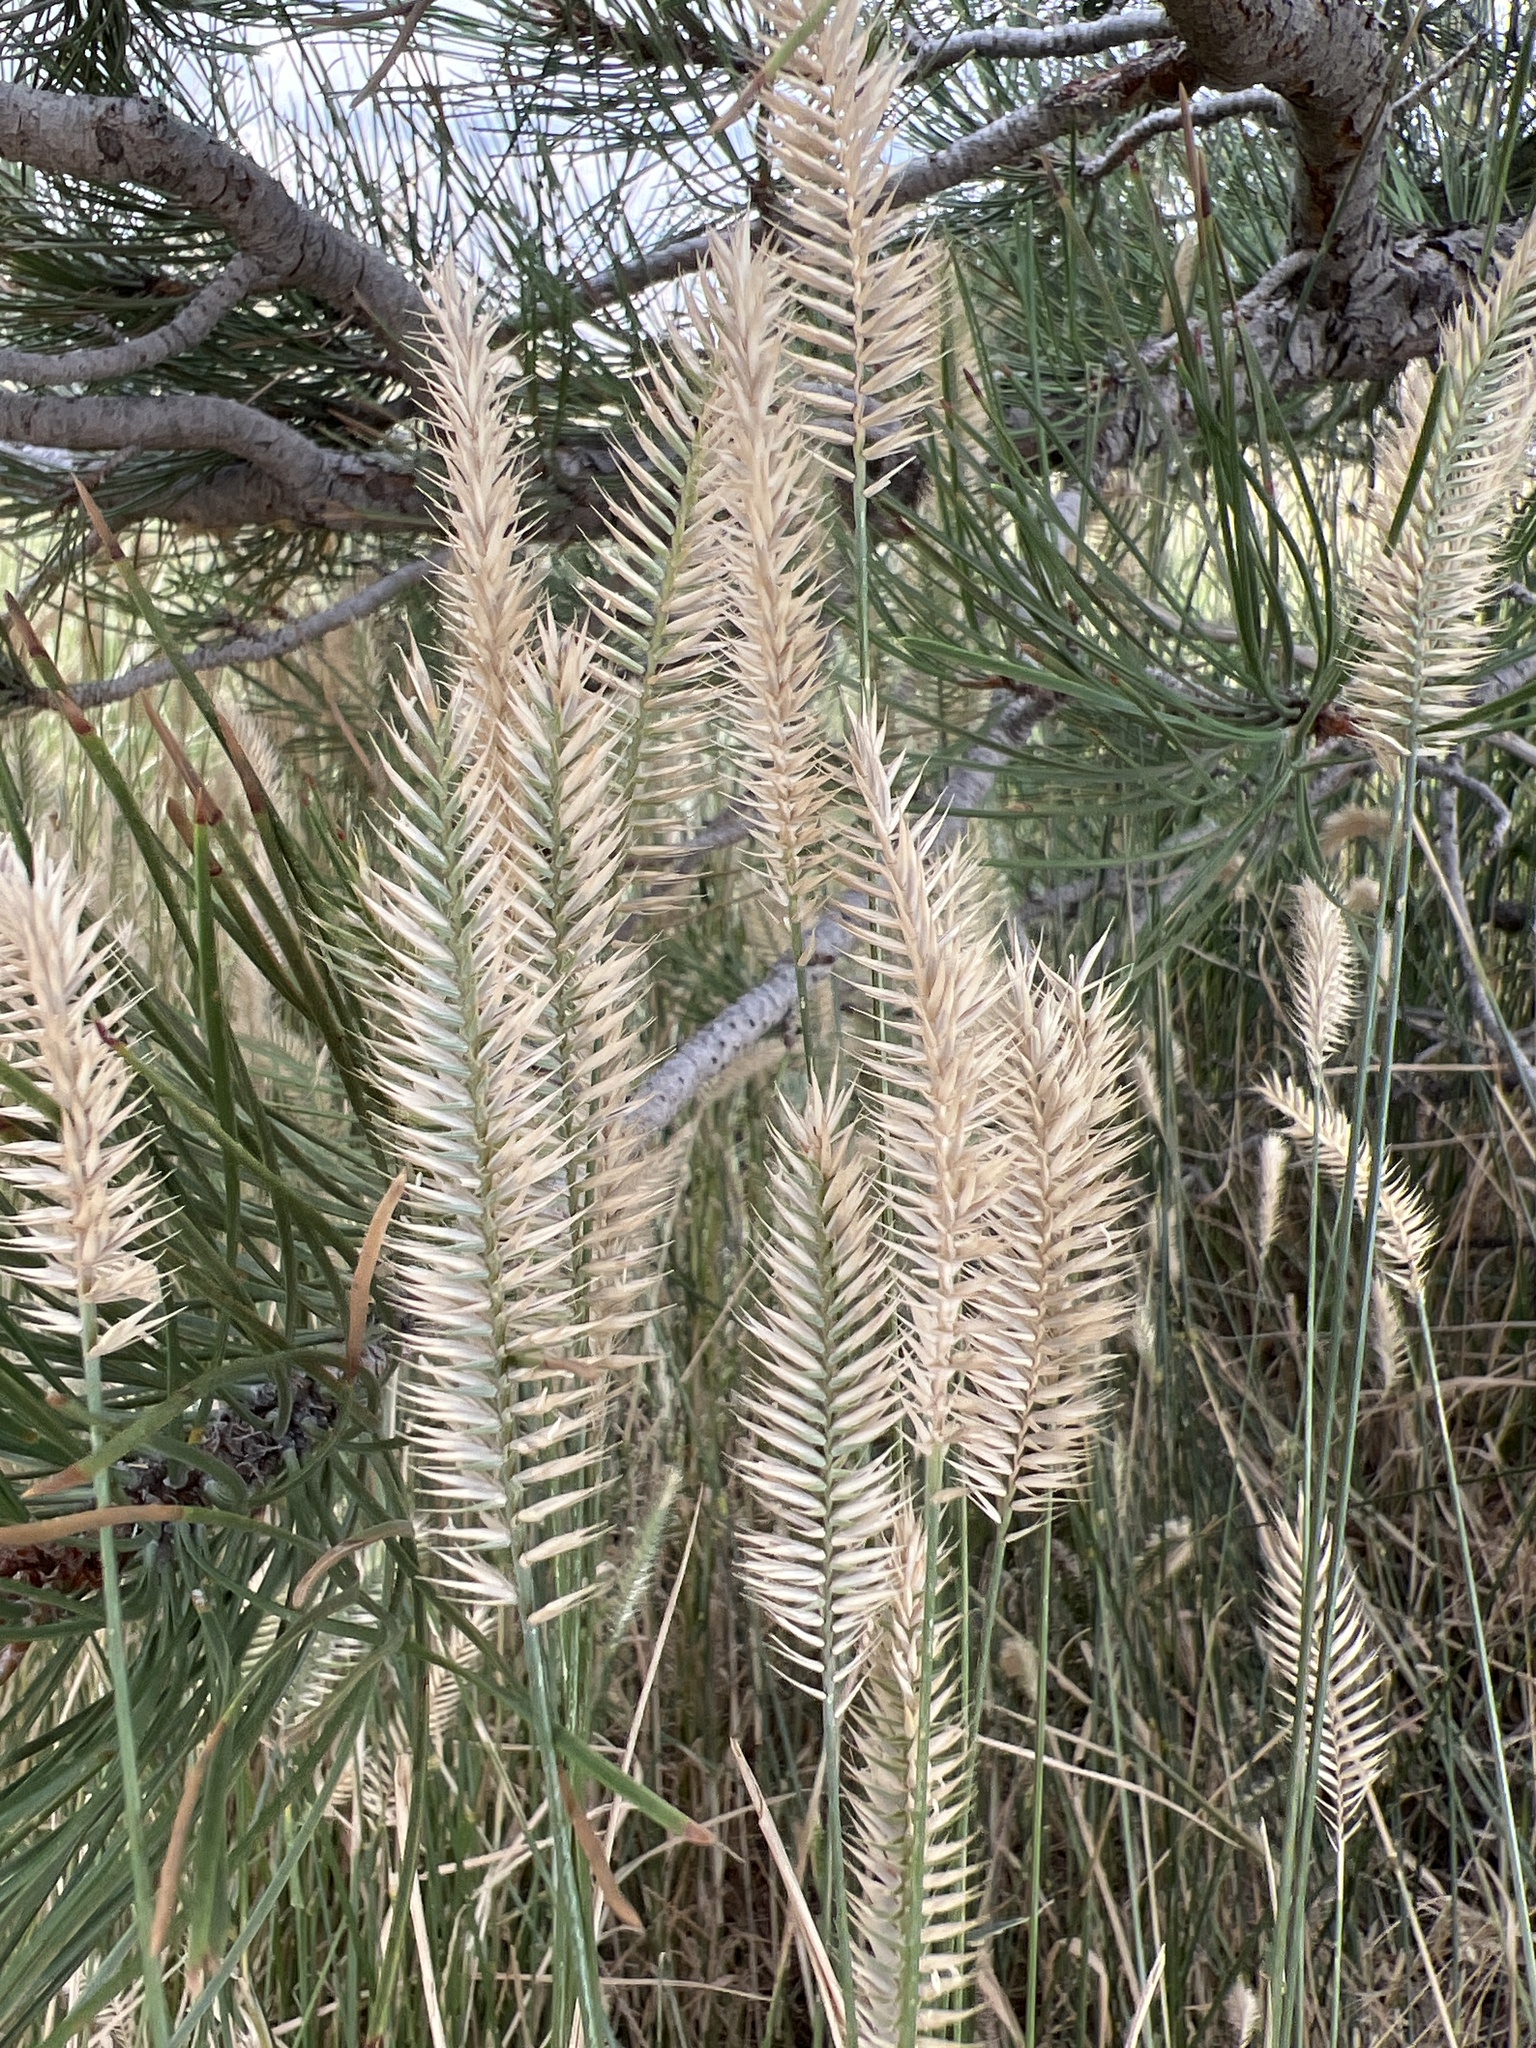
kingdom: Plantae
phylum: Tracheophyta
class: Liliopsida
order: Poales
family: Poaceae
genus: Agropyron
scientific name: Agropyron cristatum
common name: Crested wheatgrass
